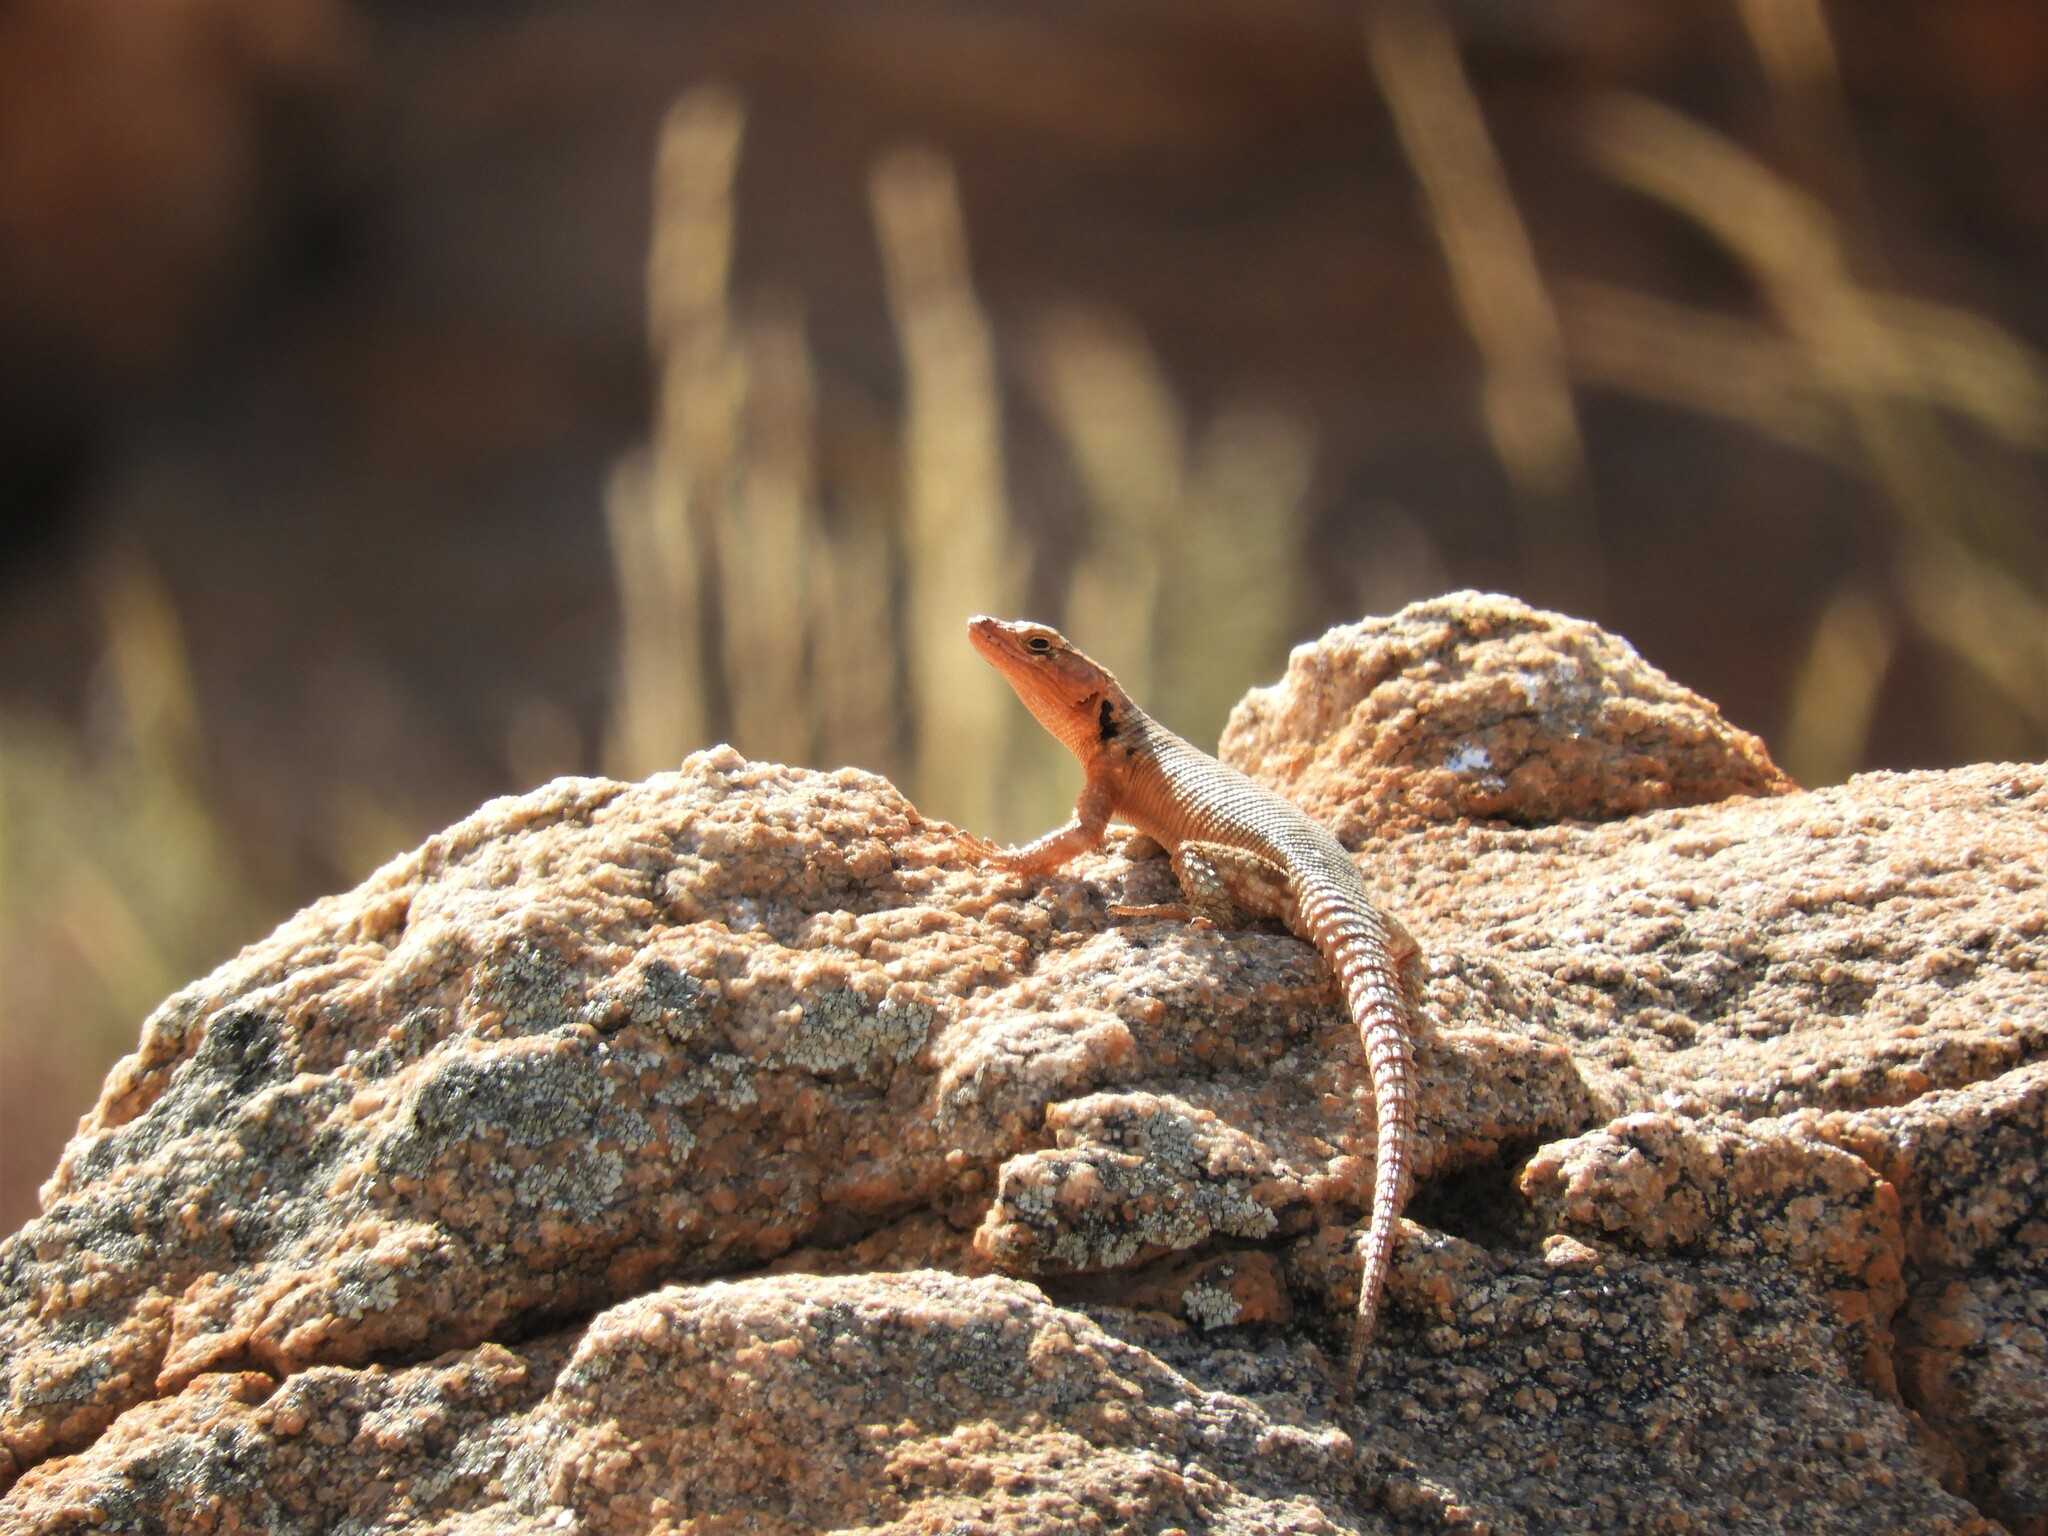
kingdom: Animalia
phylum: Chordata
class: Squamata
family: Cordylidae
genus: Karusasaurus
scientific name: Karusasaurus polyzonus
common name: Karoo girdled lizard
